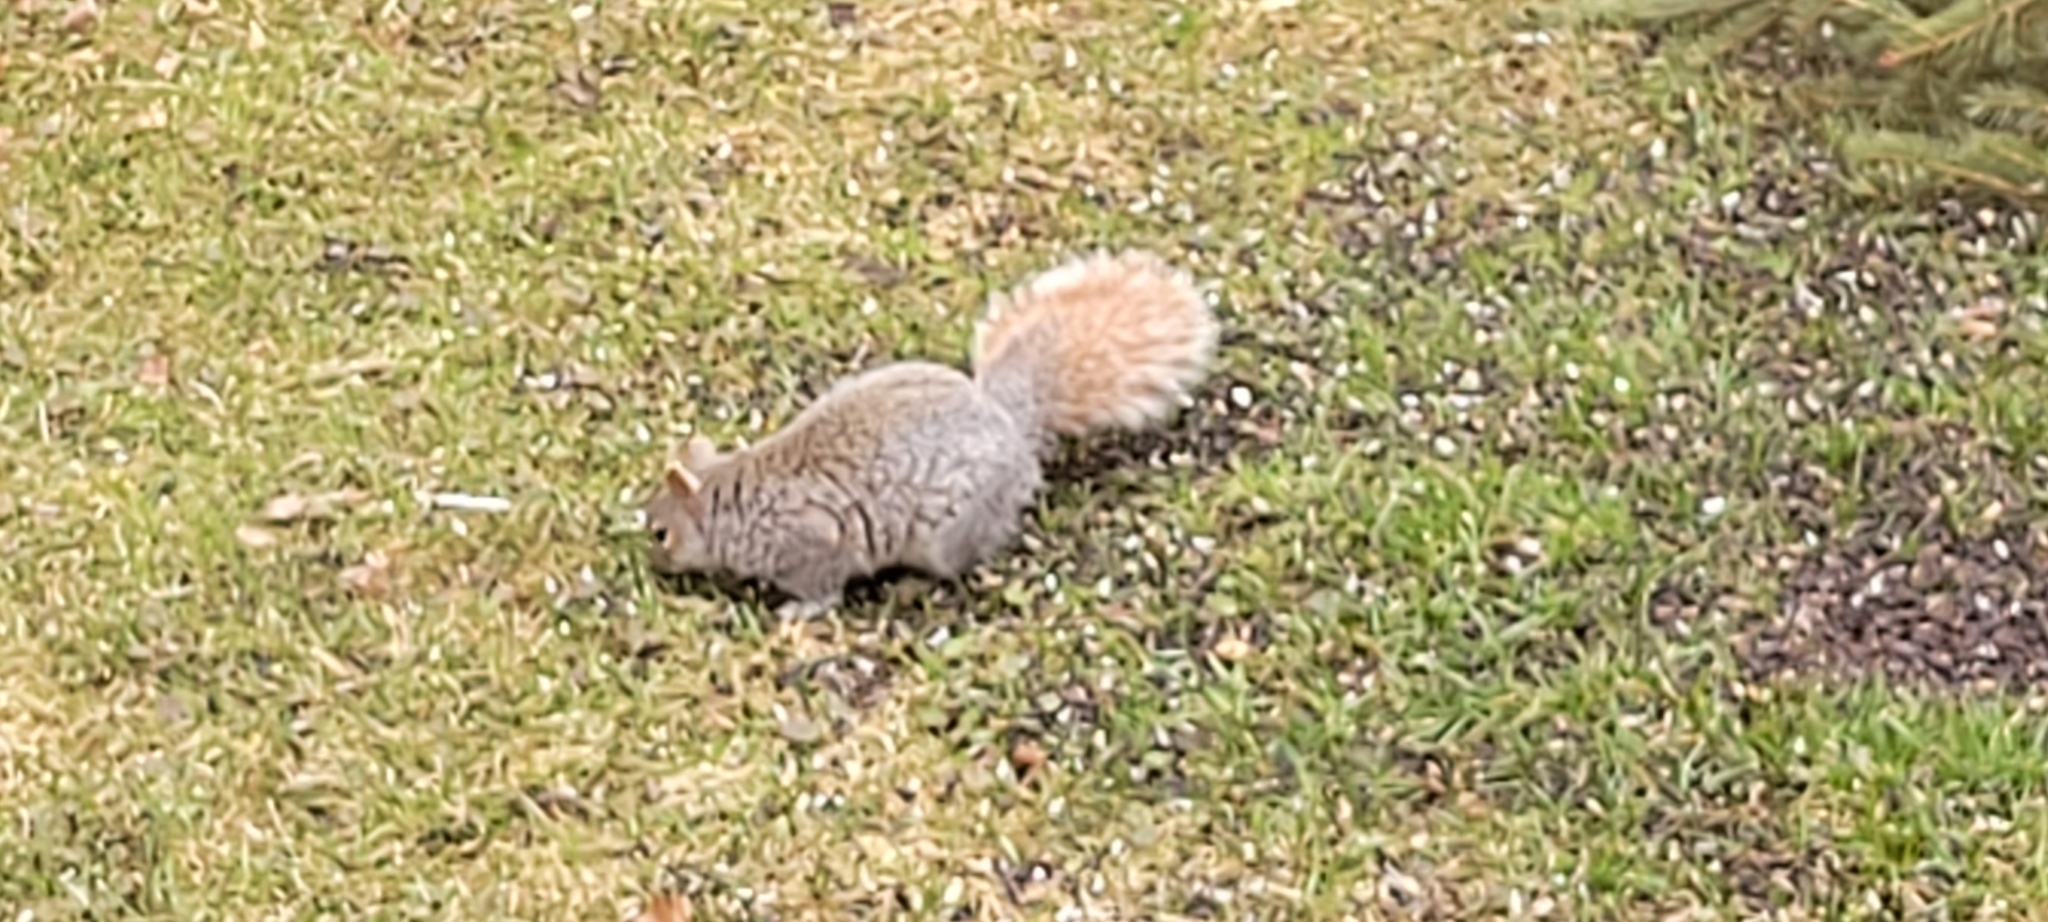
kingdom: Animalia
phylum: Chordata
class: Mammalia
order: Rodentia
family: Sciuridae
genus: Sciurus
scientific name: Sciurus carolinensis
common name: Eastern gray squirrel
